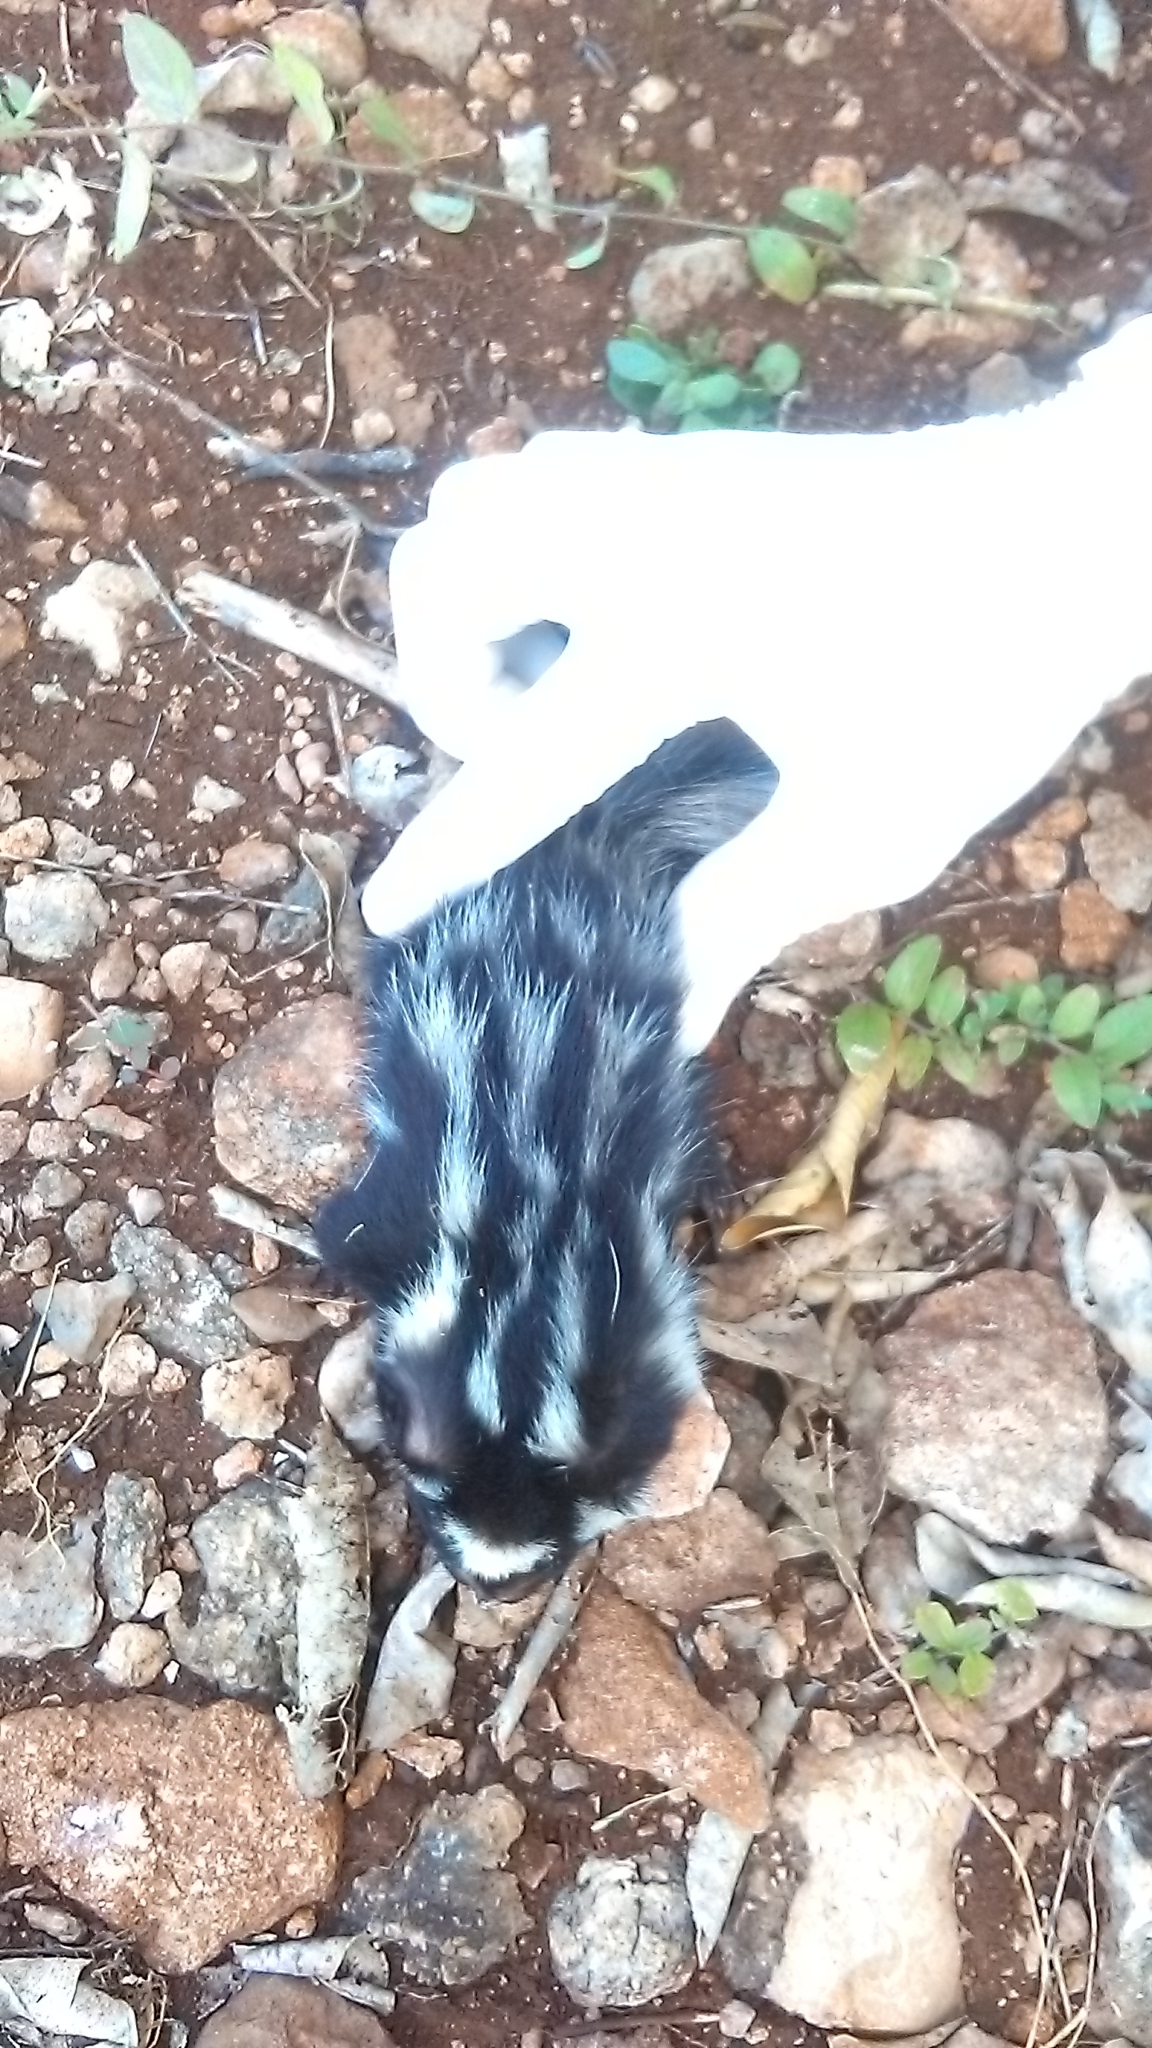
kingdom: Animalia
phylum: Chordata
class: Mammalia
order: Carnivora
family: Mephitidae
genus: Spilogale
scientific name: Spilogale angustifrons
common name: Southern spotted skunk
